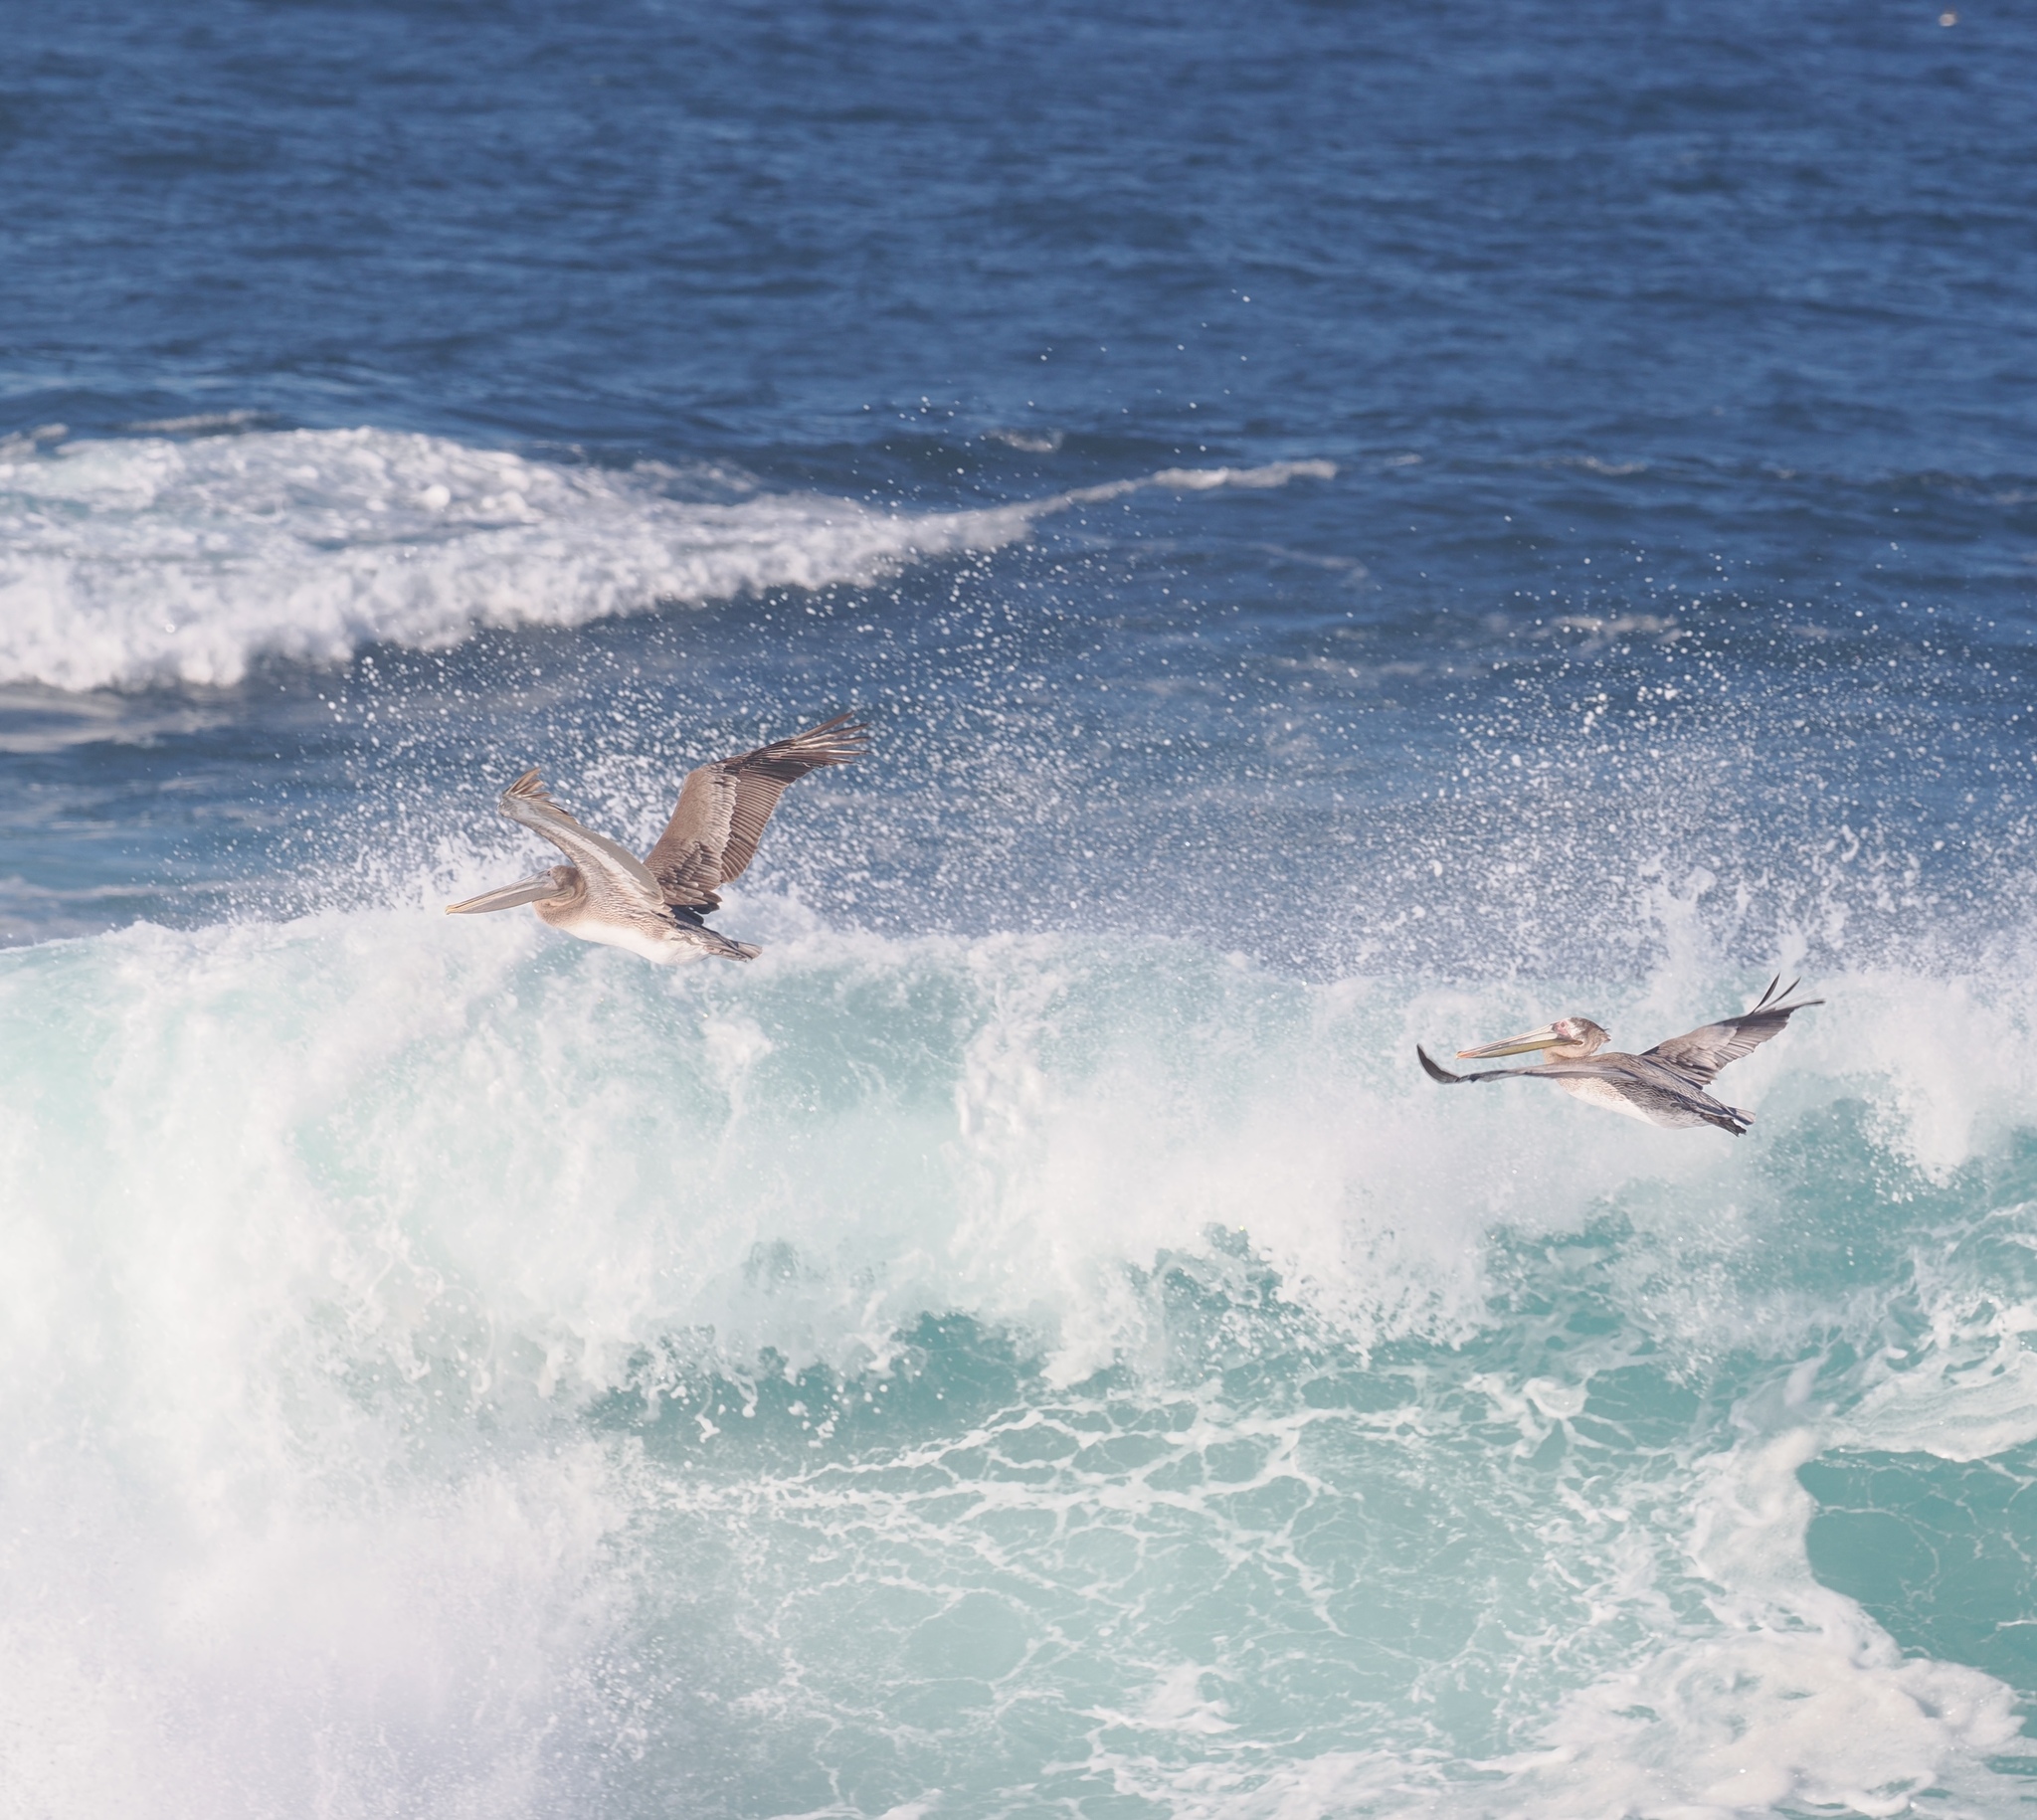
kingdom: Animalia
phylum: Chordata
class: Aves
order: Pelecaniformes
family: Pelecanidae
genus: Pelecanus
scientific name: Pelecanus occidentalis
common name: Brown pelican
